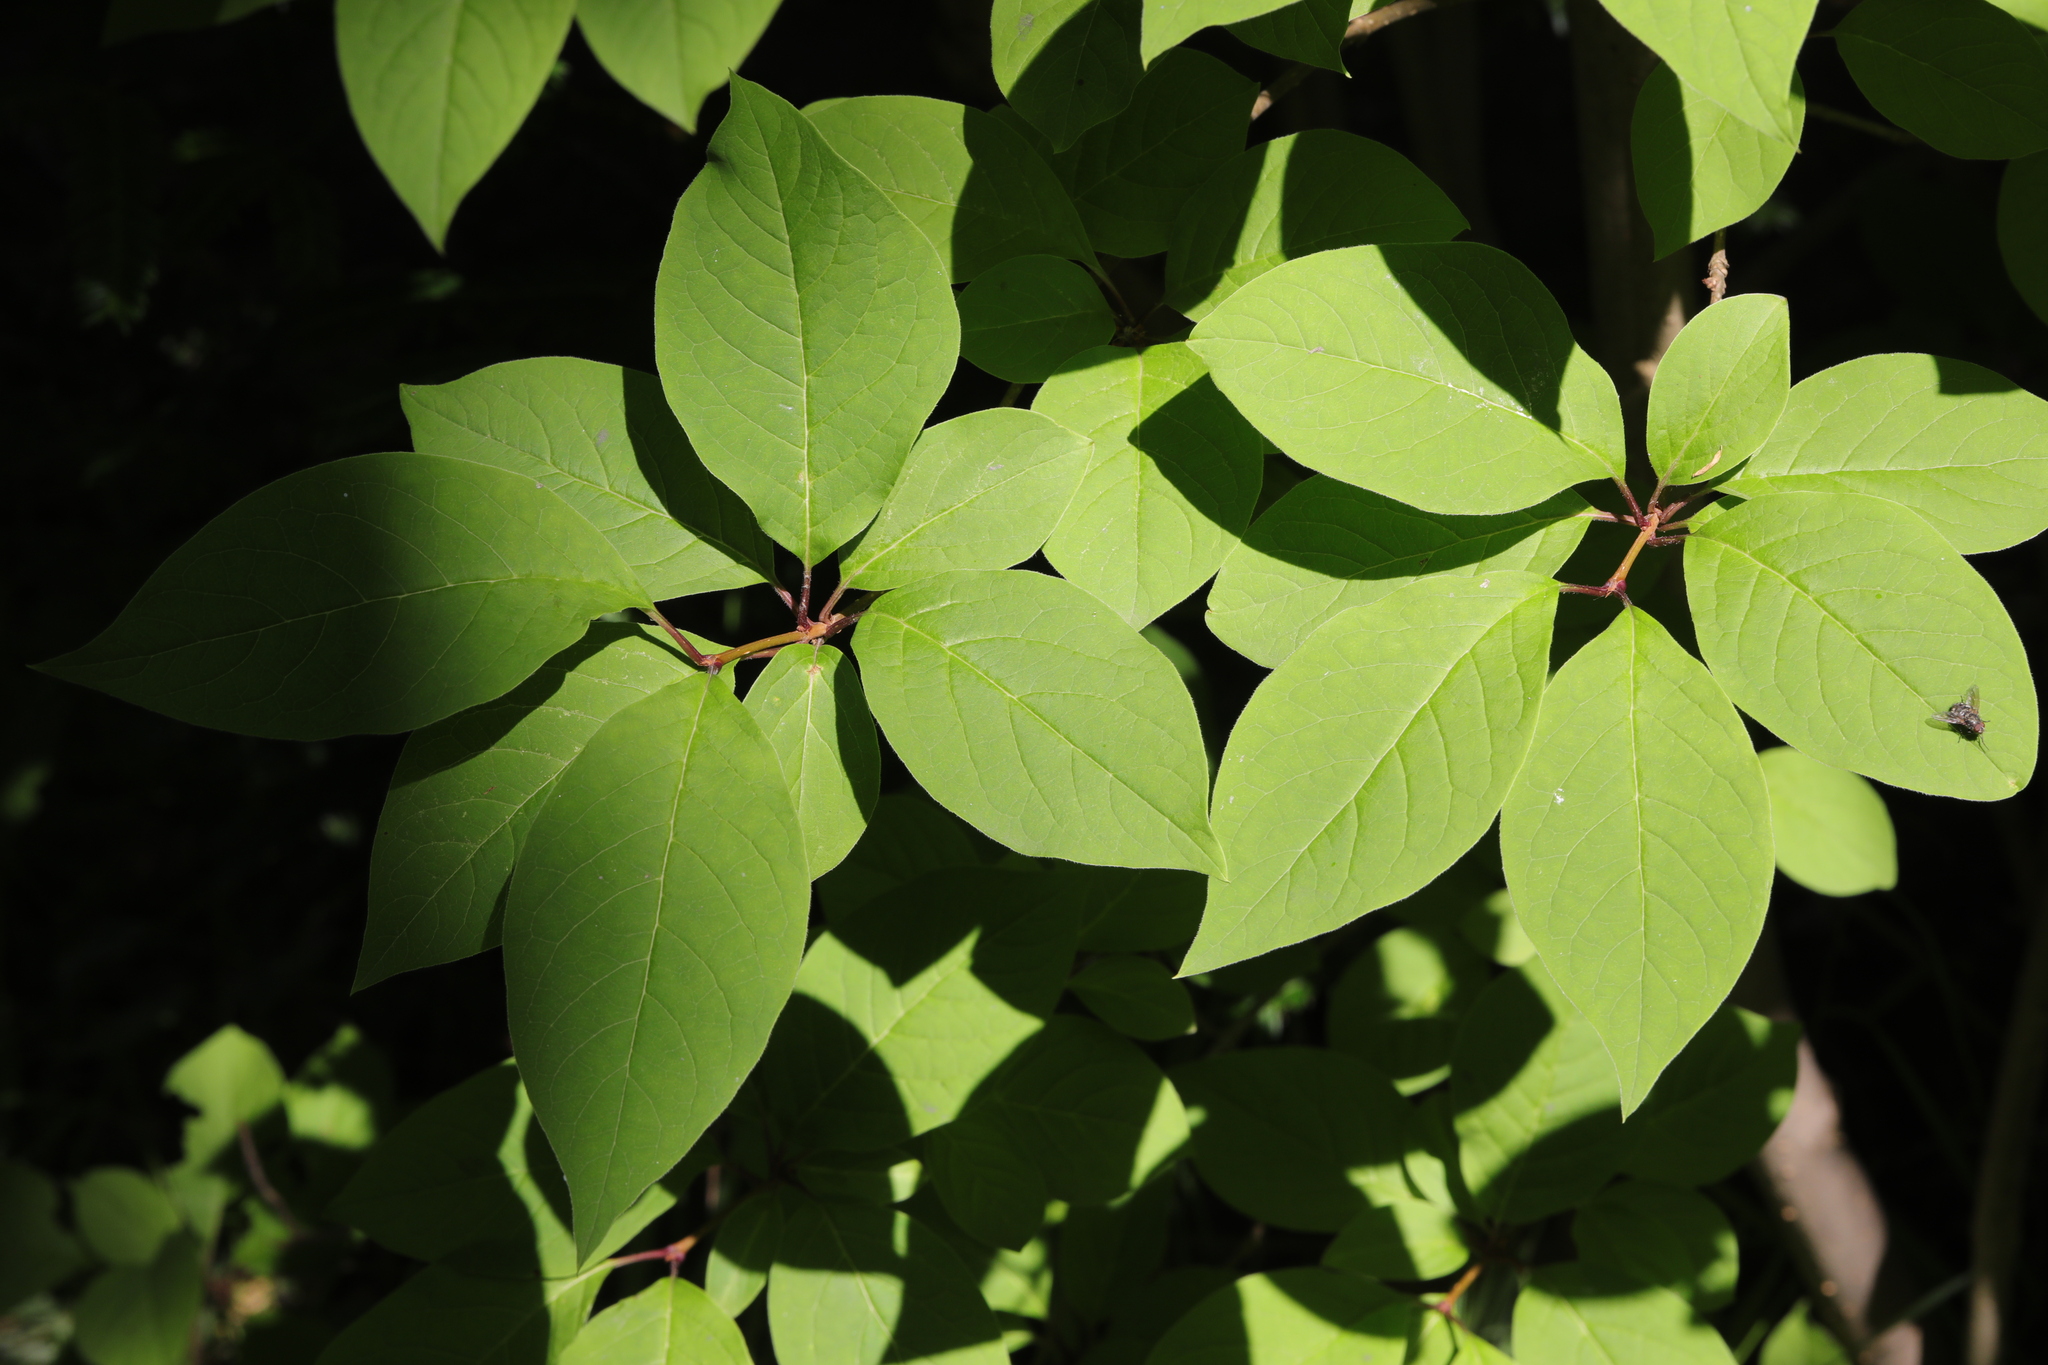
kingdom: Plantae
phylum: Tracheophyta
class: Magnoliopsida
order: Rosales
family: Rosaceae
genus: Prunus
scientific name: Prunus padus
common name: Bird cherry
